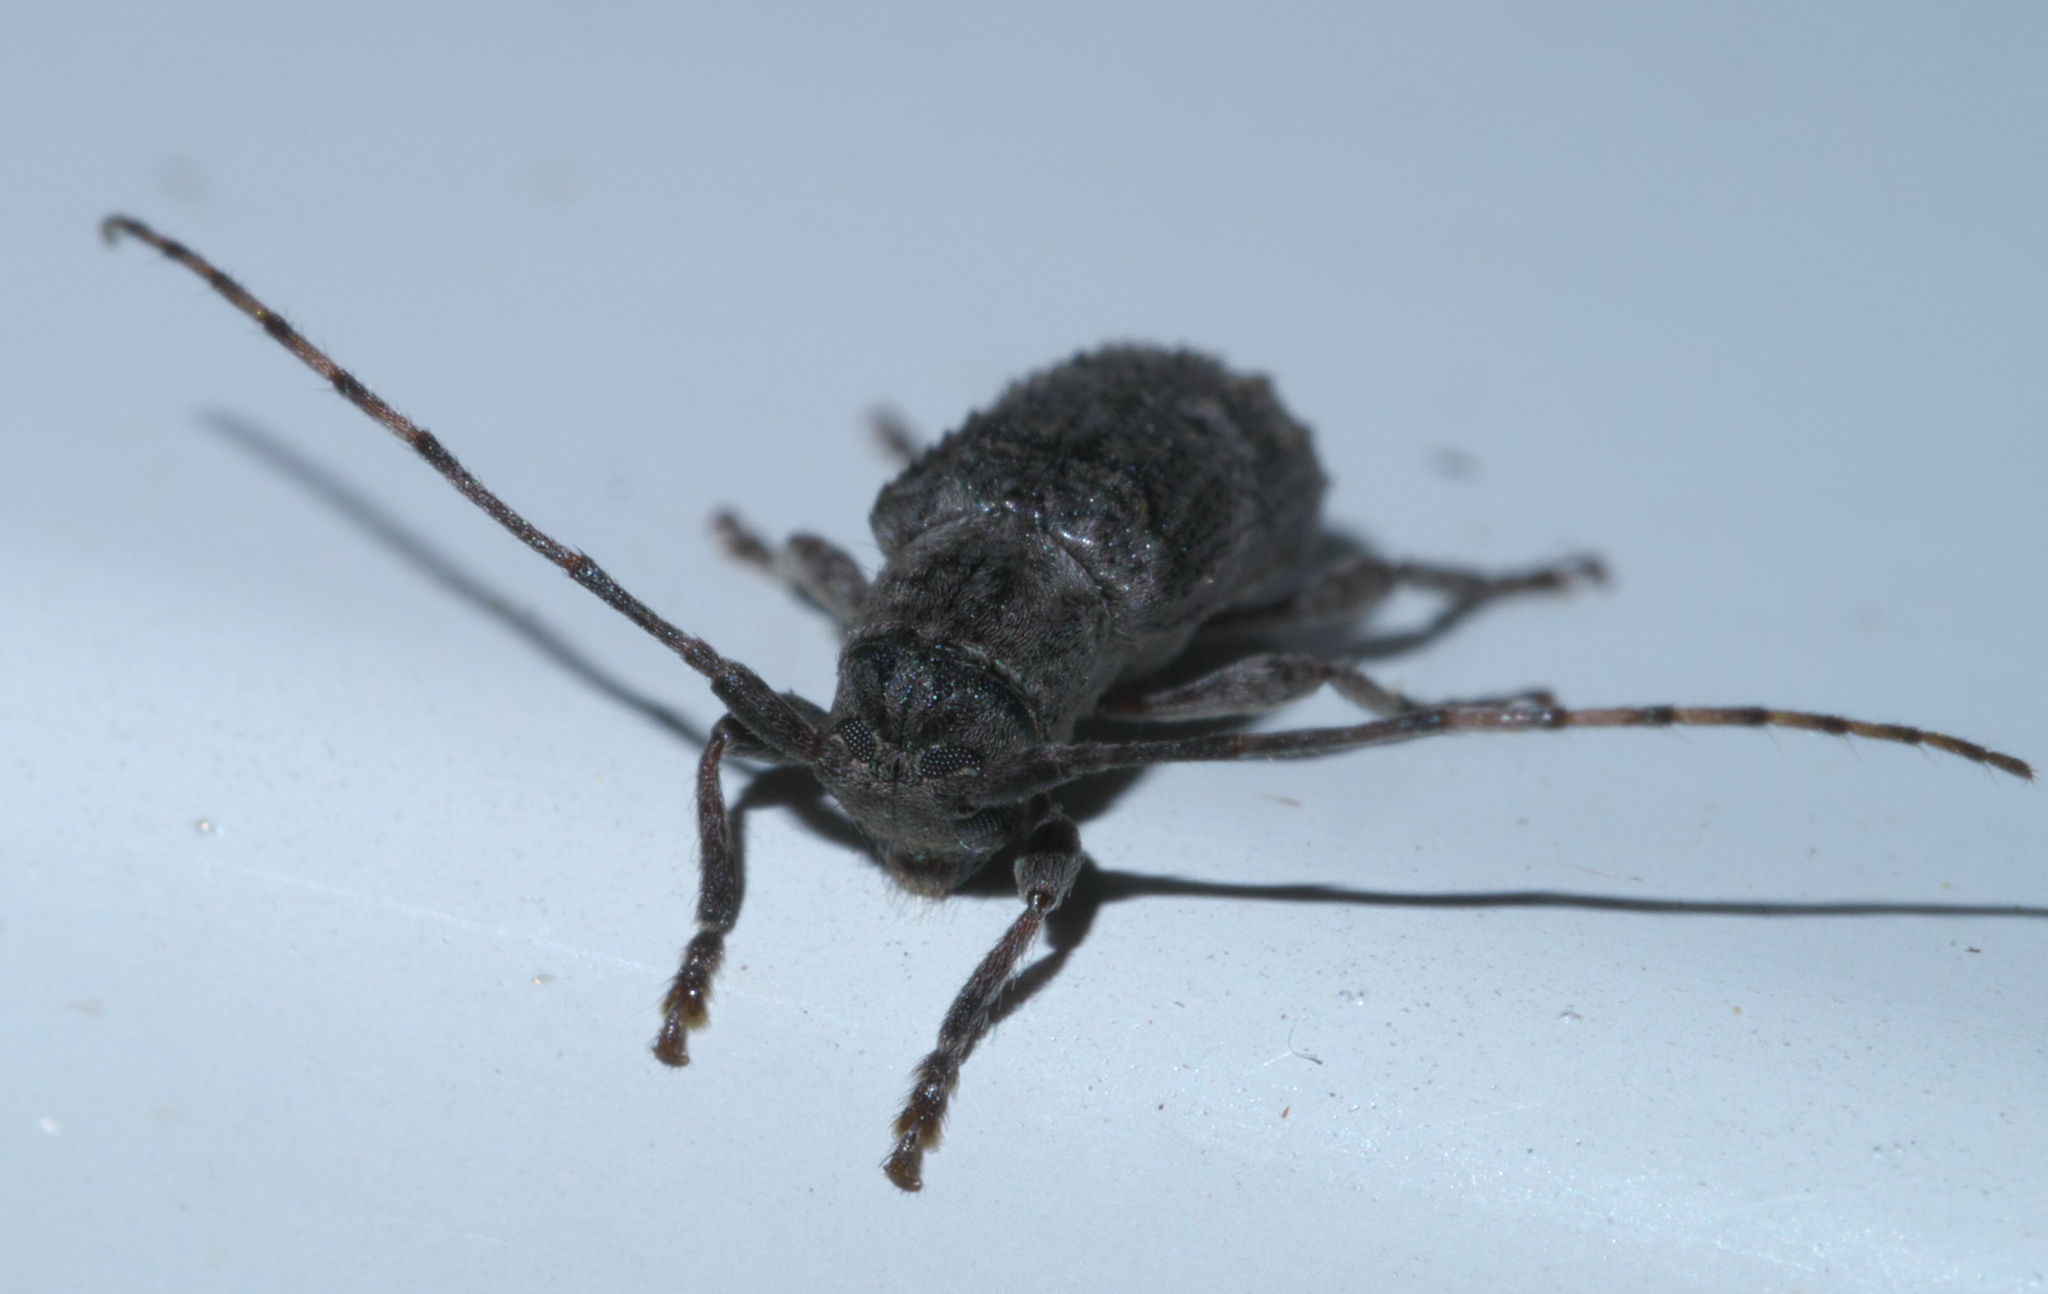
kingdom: Animalia
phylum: Arthropoda
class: Insecta
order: Coleoptera
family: Cerambycidae
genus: Ecyrus
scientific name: Ecyrus dasycerus
